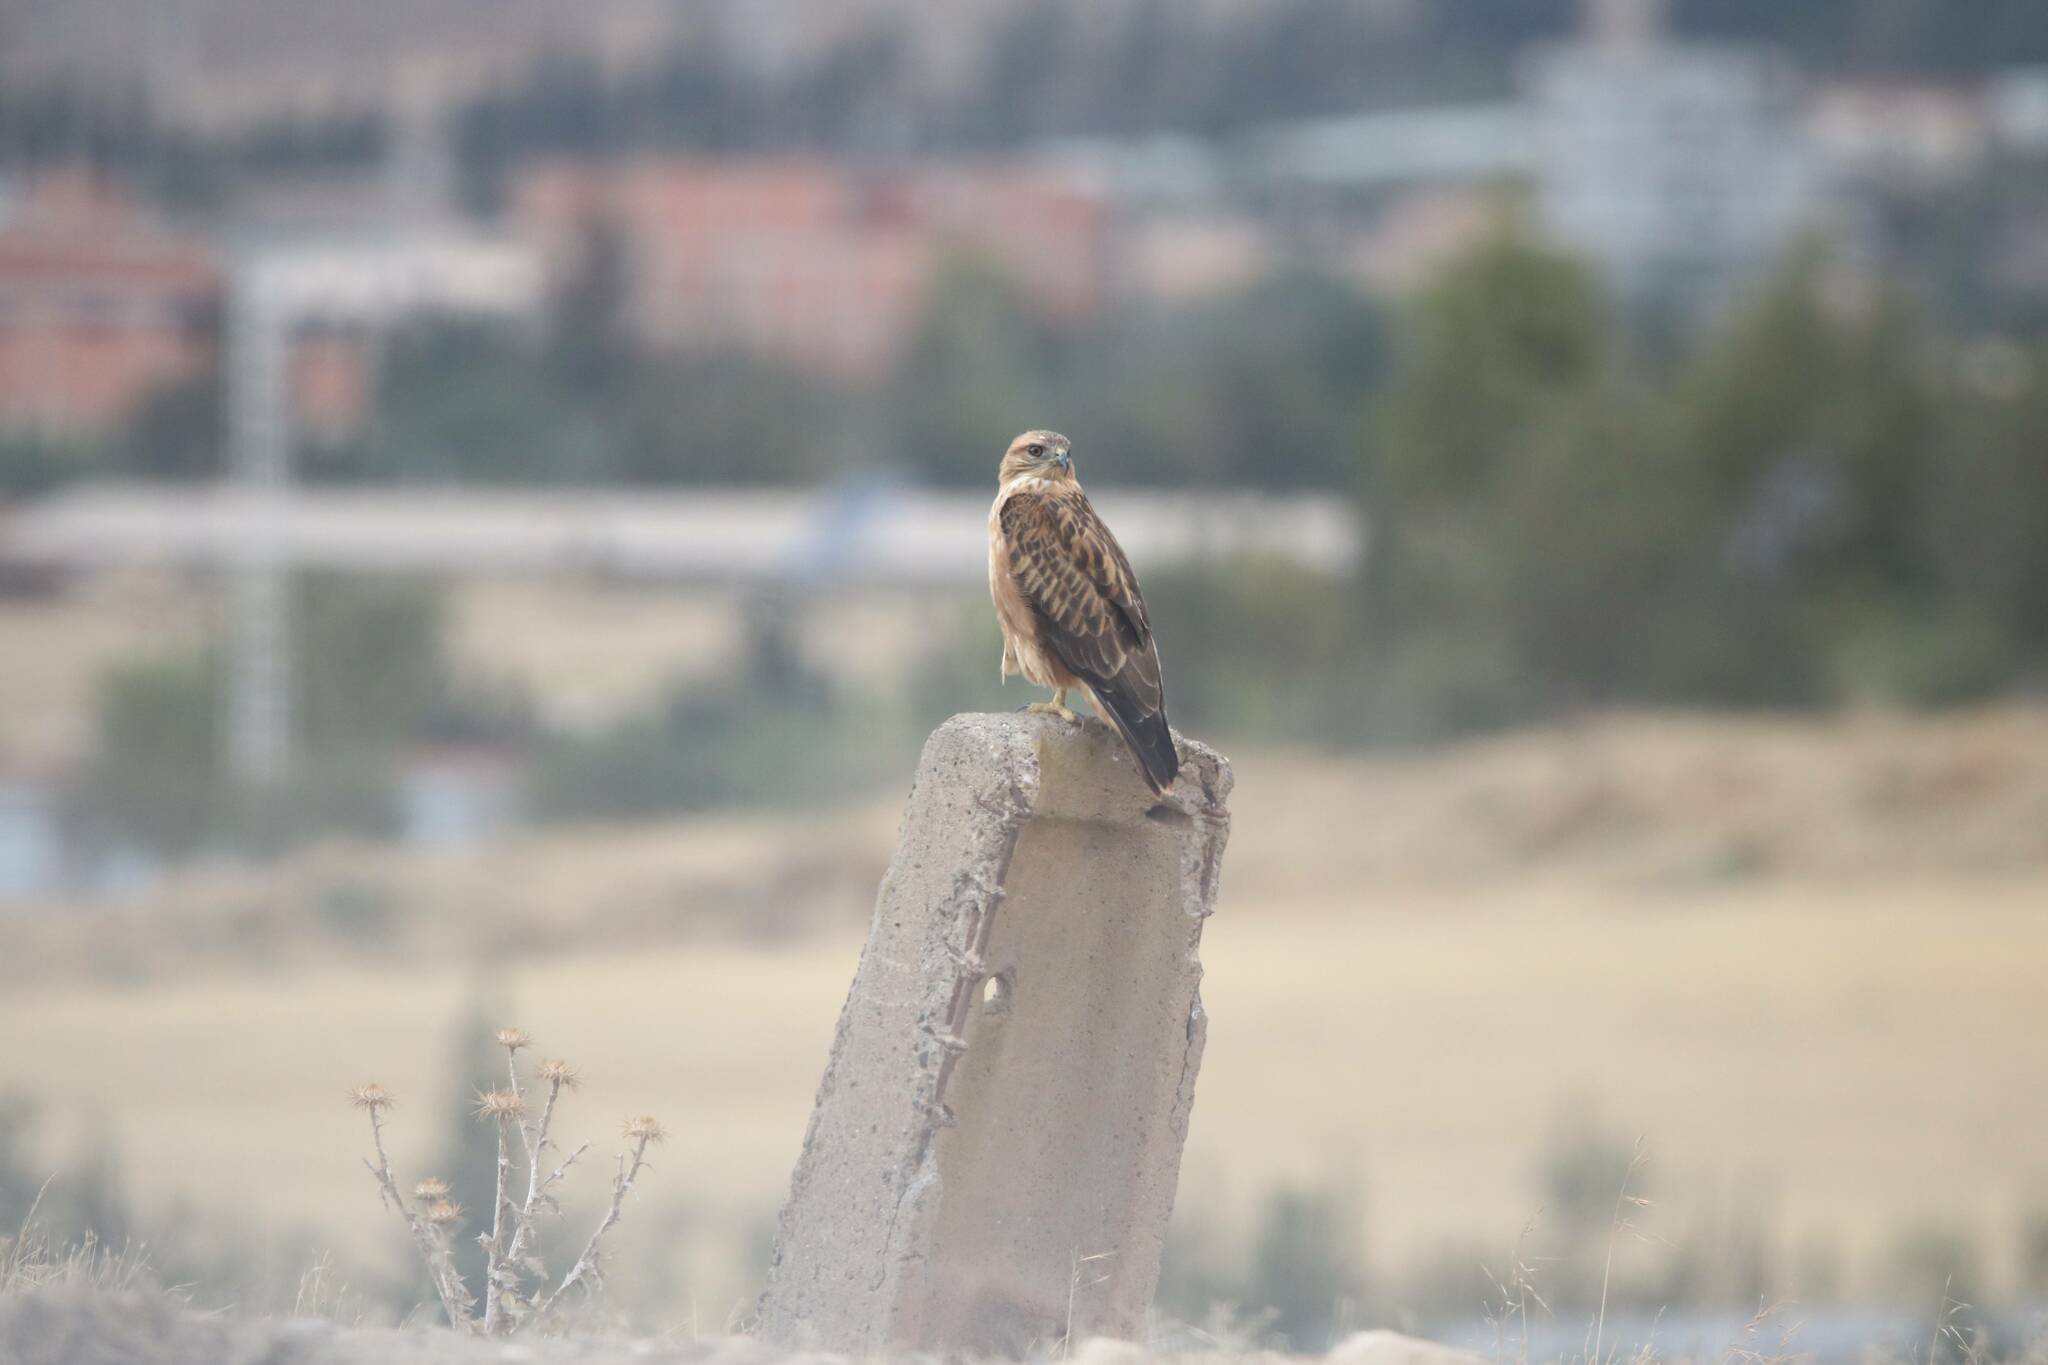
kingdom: Animalia
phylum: Chordata
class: Aves
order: Accipitriformes
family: Accipitridae
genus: Buteo
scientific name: Buteo rufinus
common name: Long-legged buzzard
